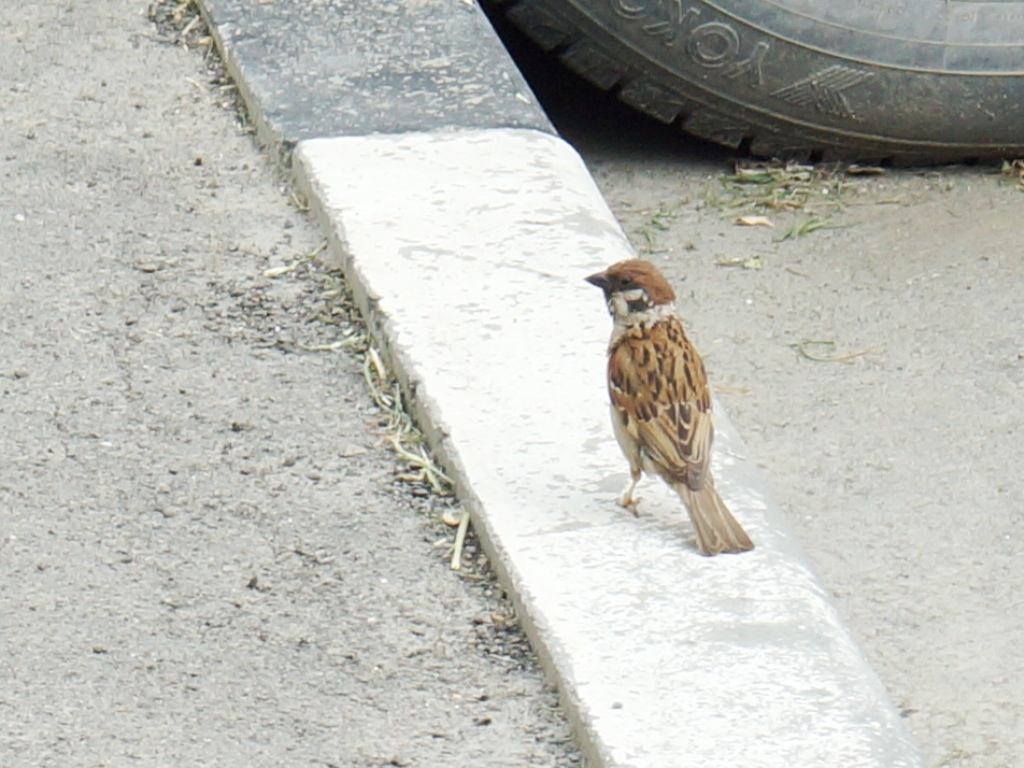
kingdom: Animalia
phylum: Chordata
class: Aves
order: Passeriformes
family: Passeridae
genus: Passer
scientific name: Passer montanus
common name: Eurasian tree sparrow
